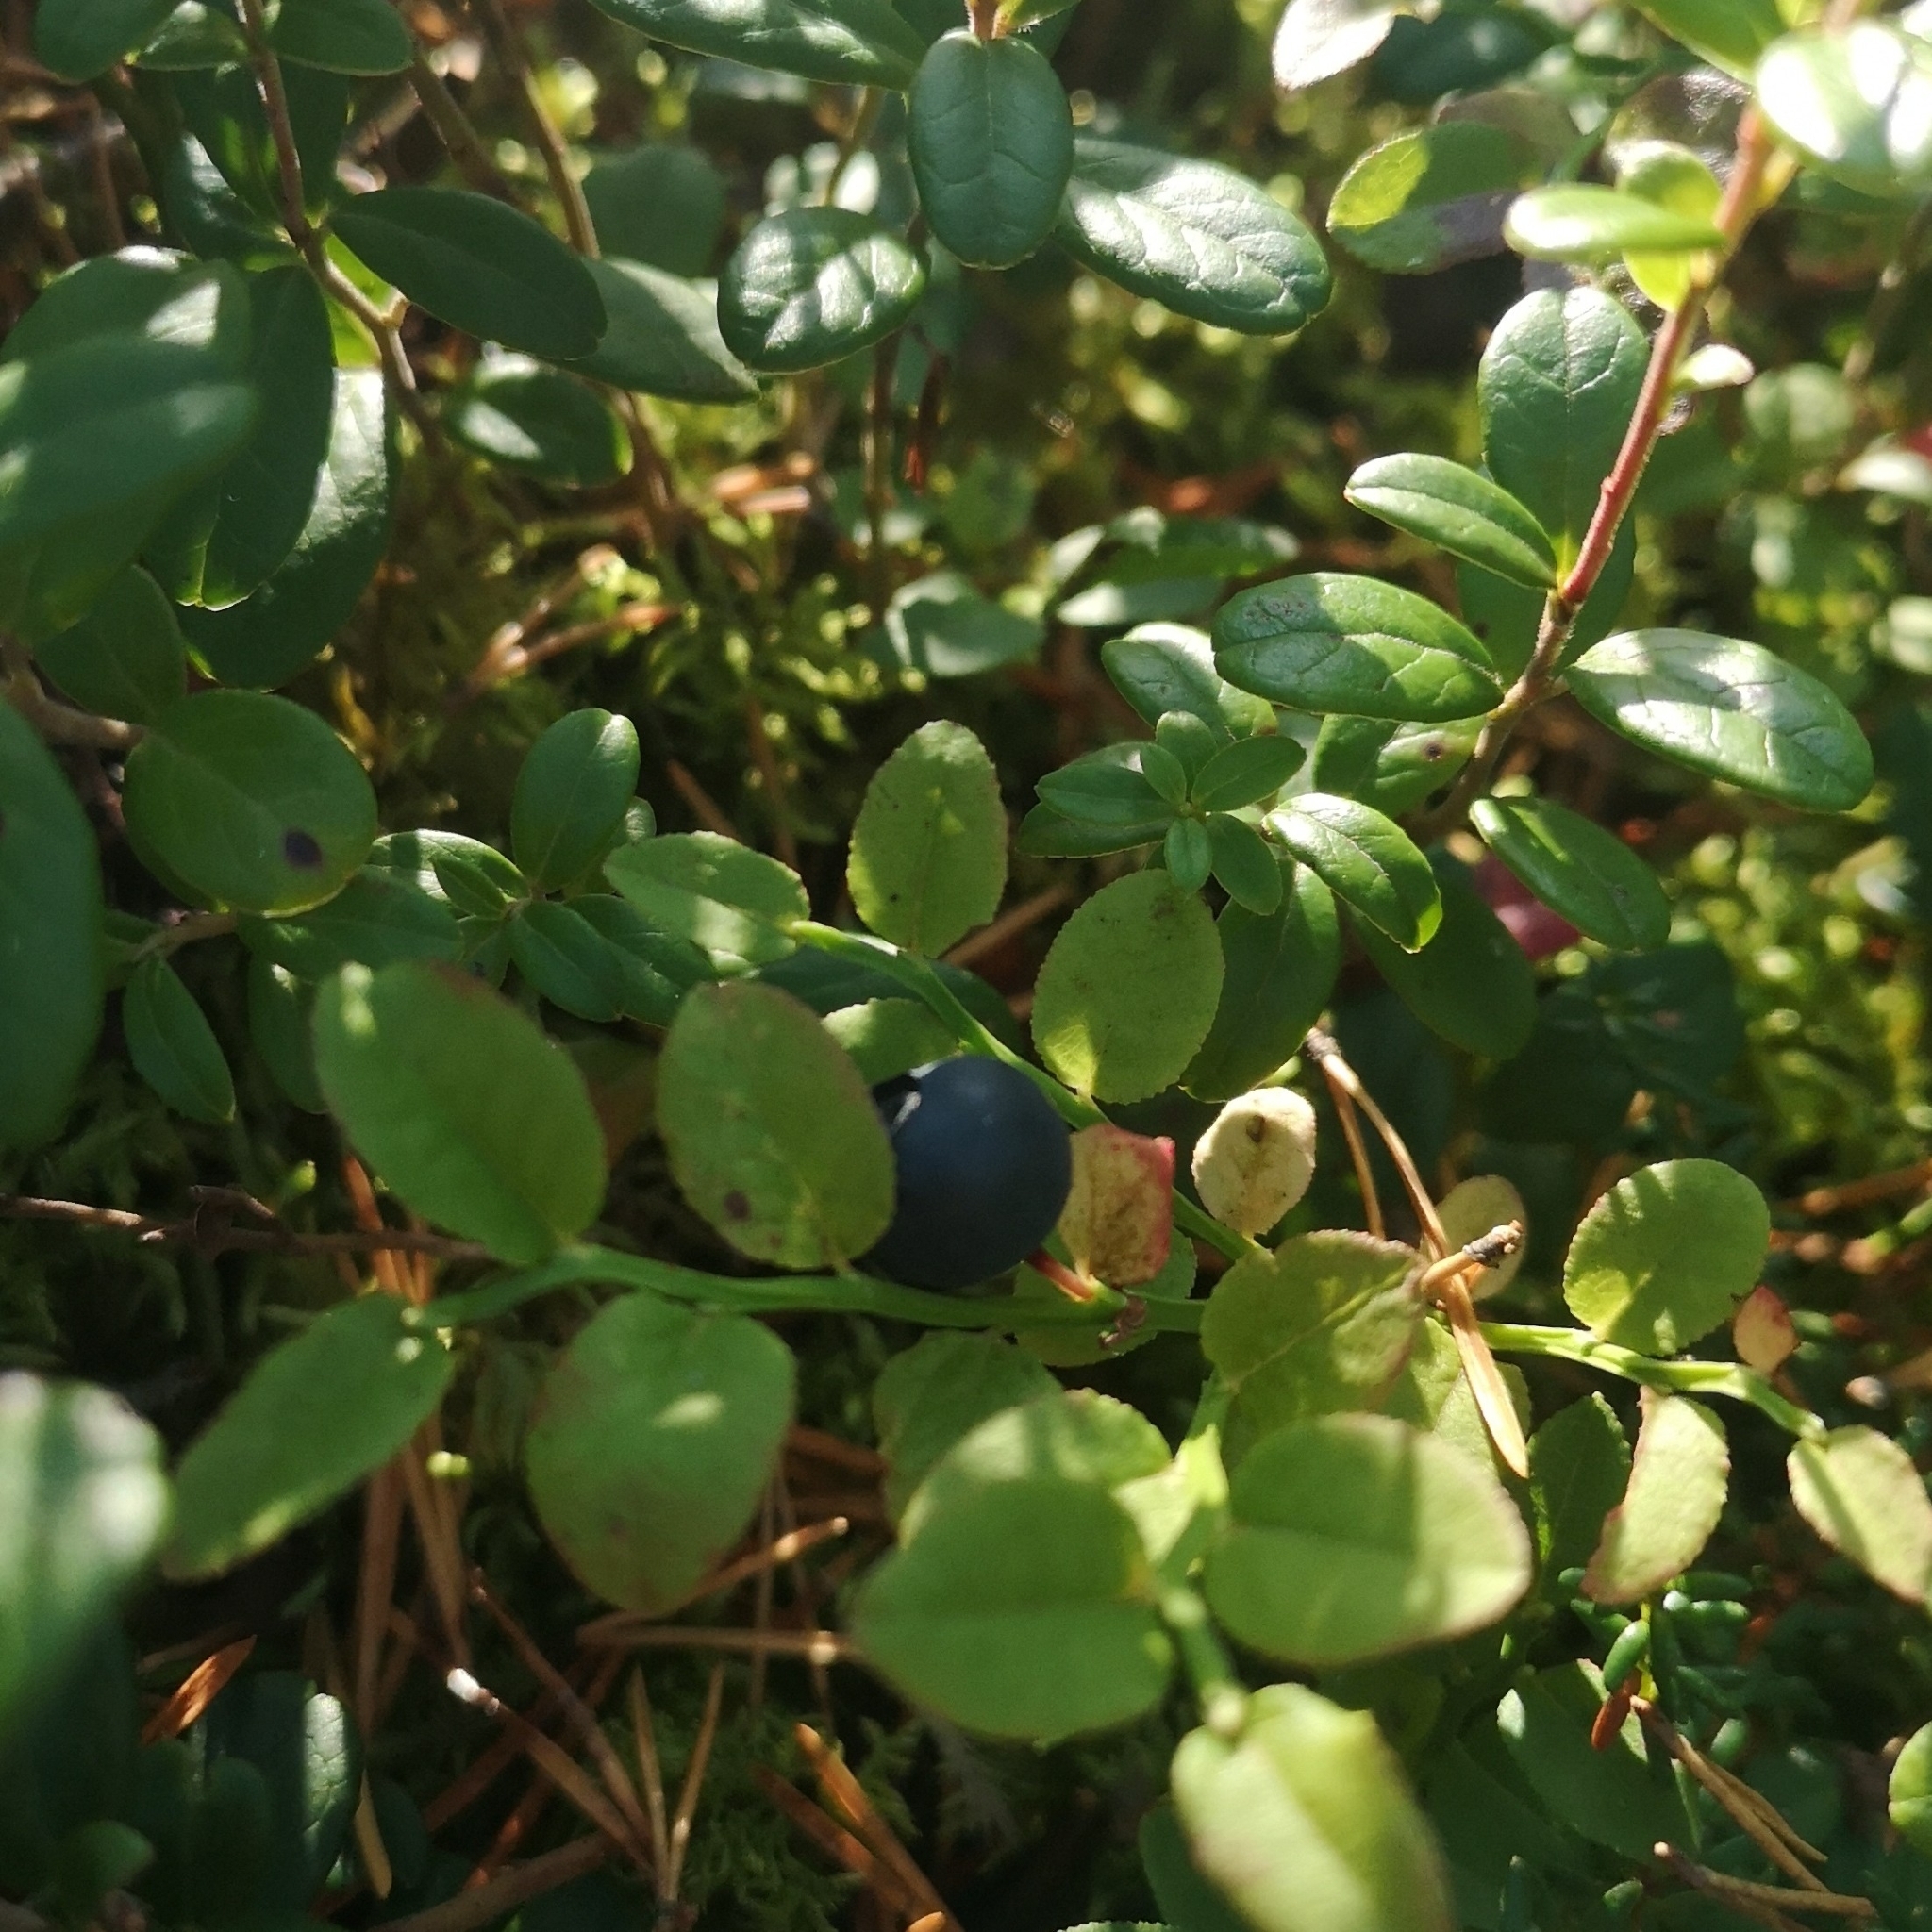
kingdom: Plantae
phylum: Tracheophyta
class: Magnoliopsida
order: Ericales
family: Ericaceae
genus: Vaccinium
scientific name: Vaccinium myrtillus
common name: Bilberry
